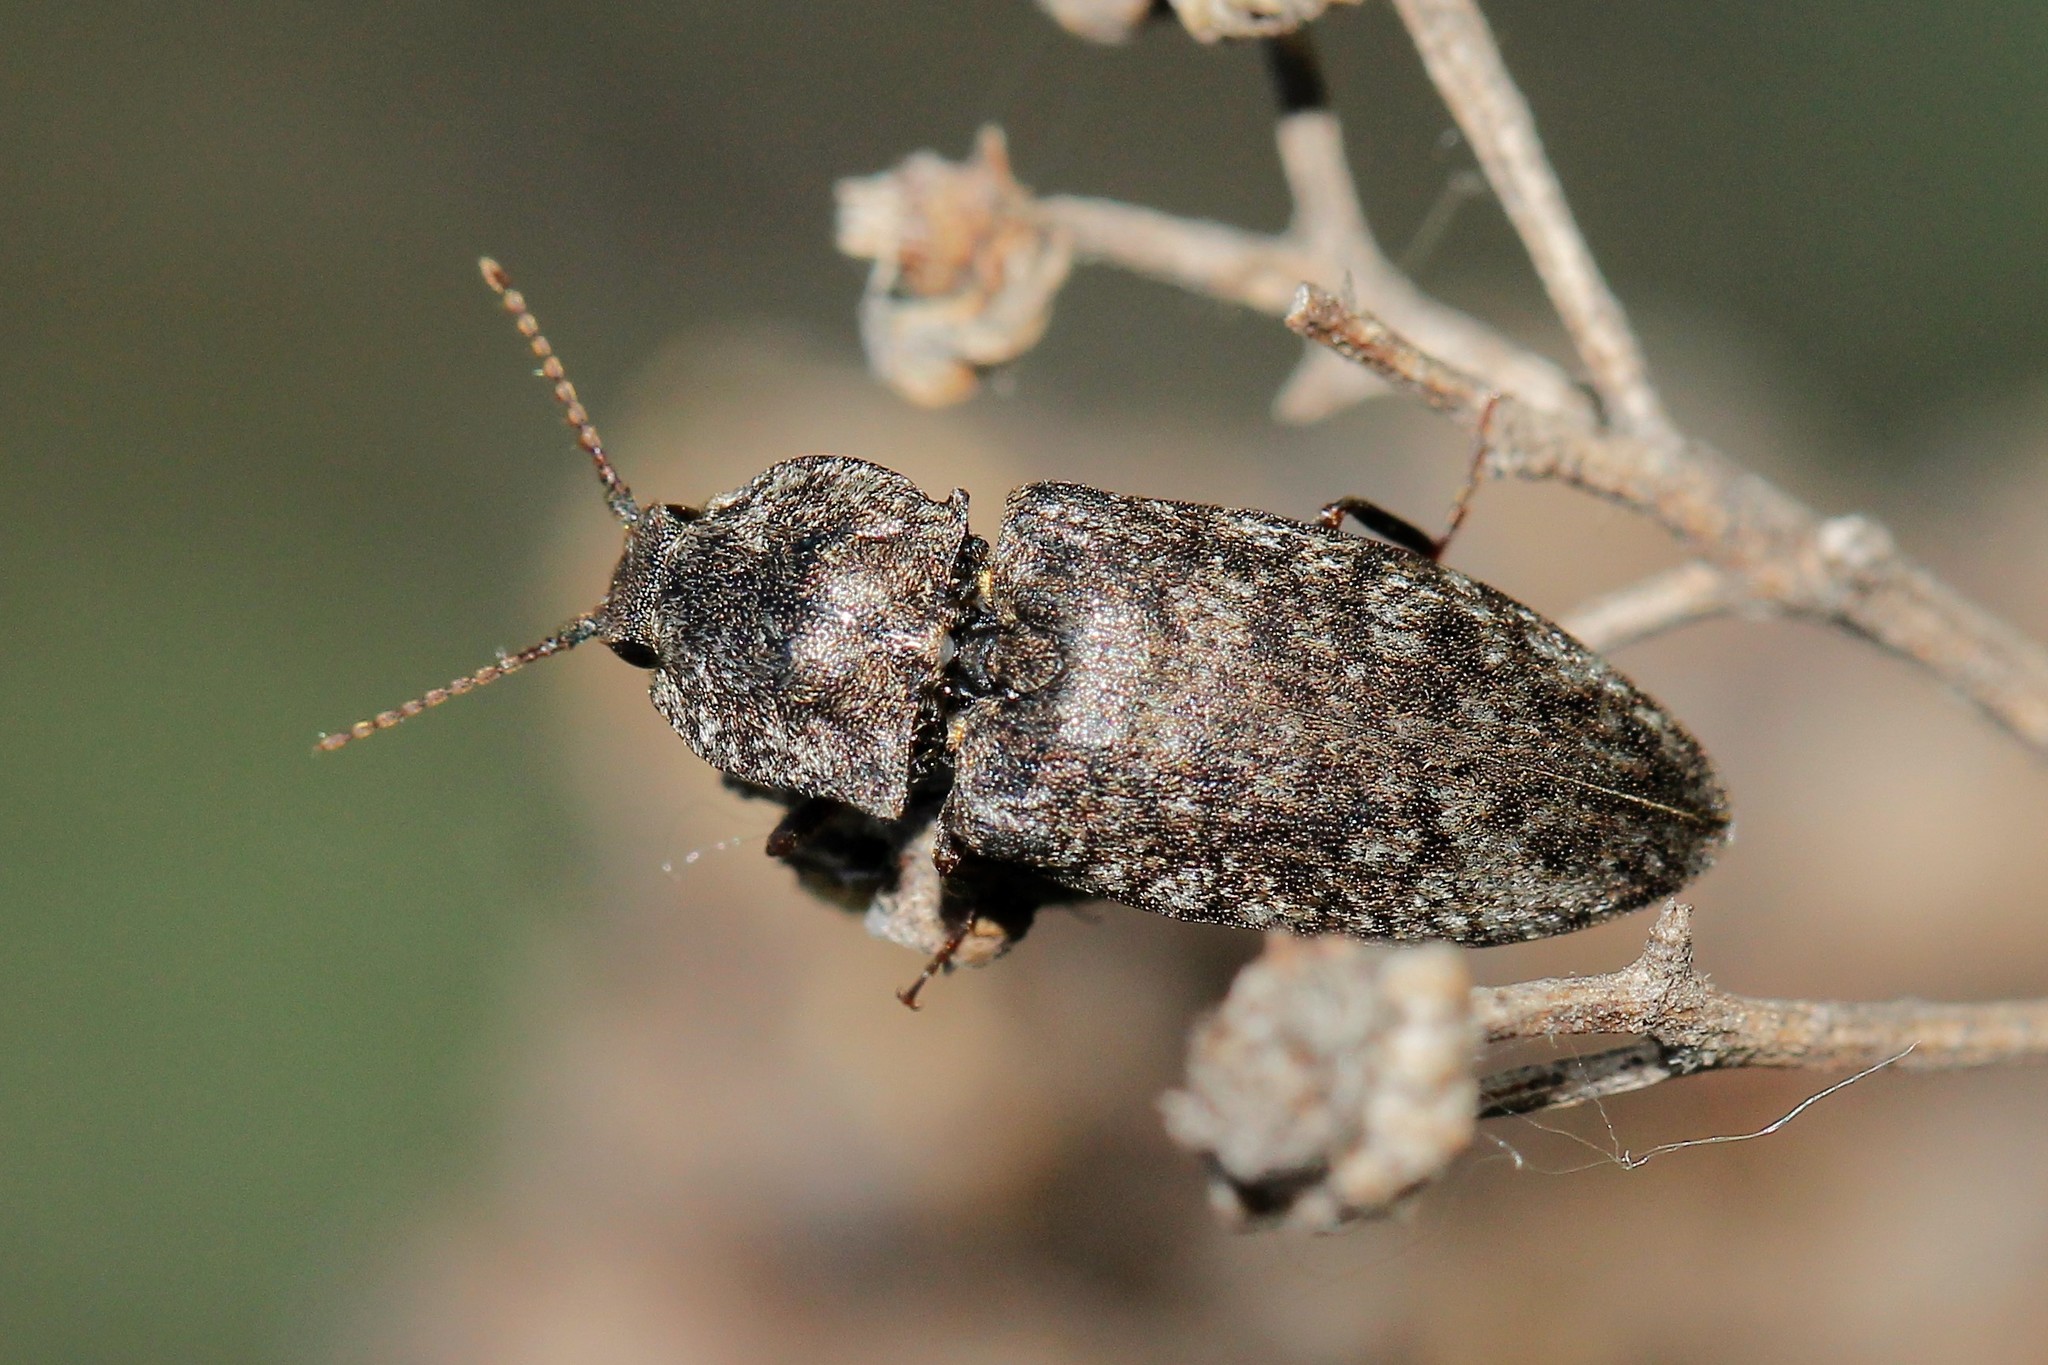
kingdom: Animalia
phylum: Arthropoda
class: Insecta
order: Coleoptera
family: Elateridae
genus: Agrypnus
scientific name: Agrypnus murinus
